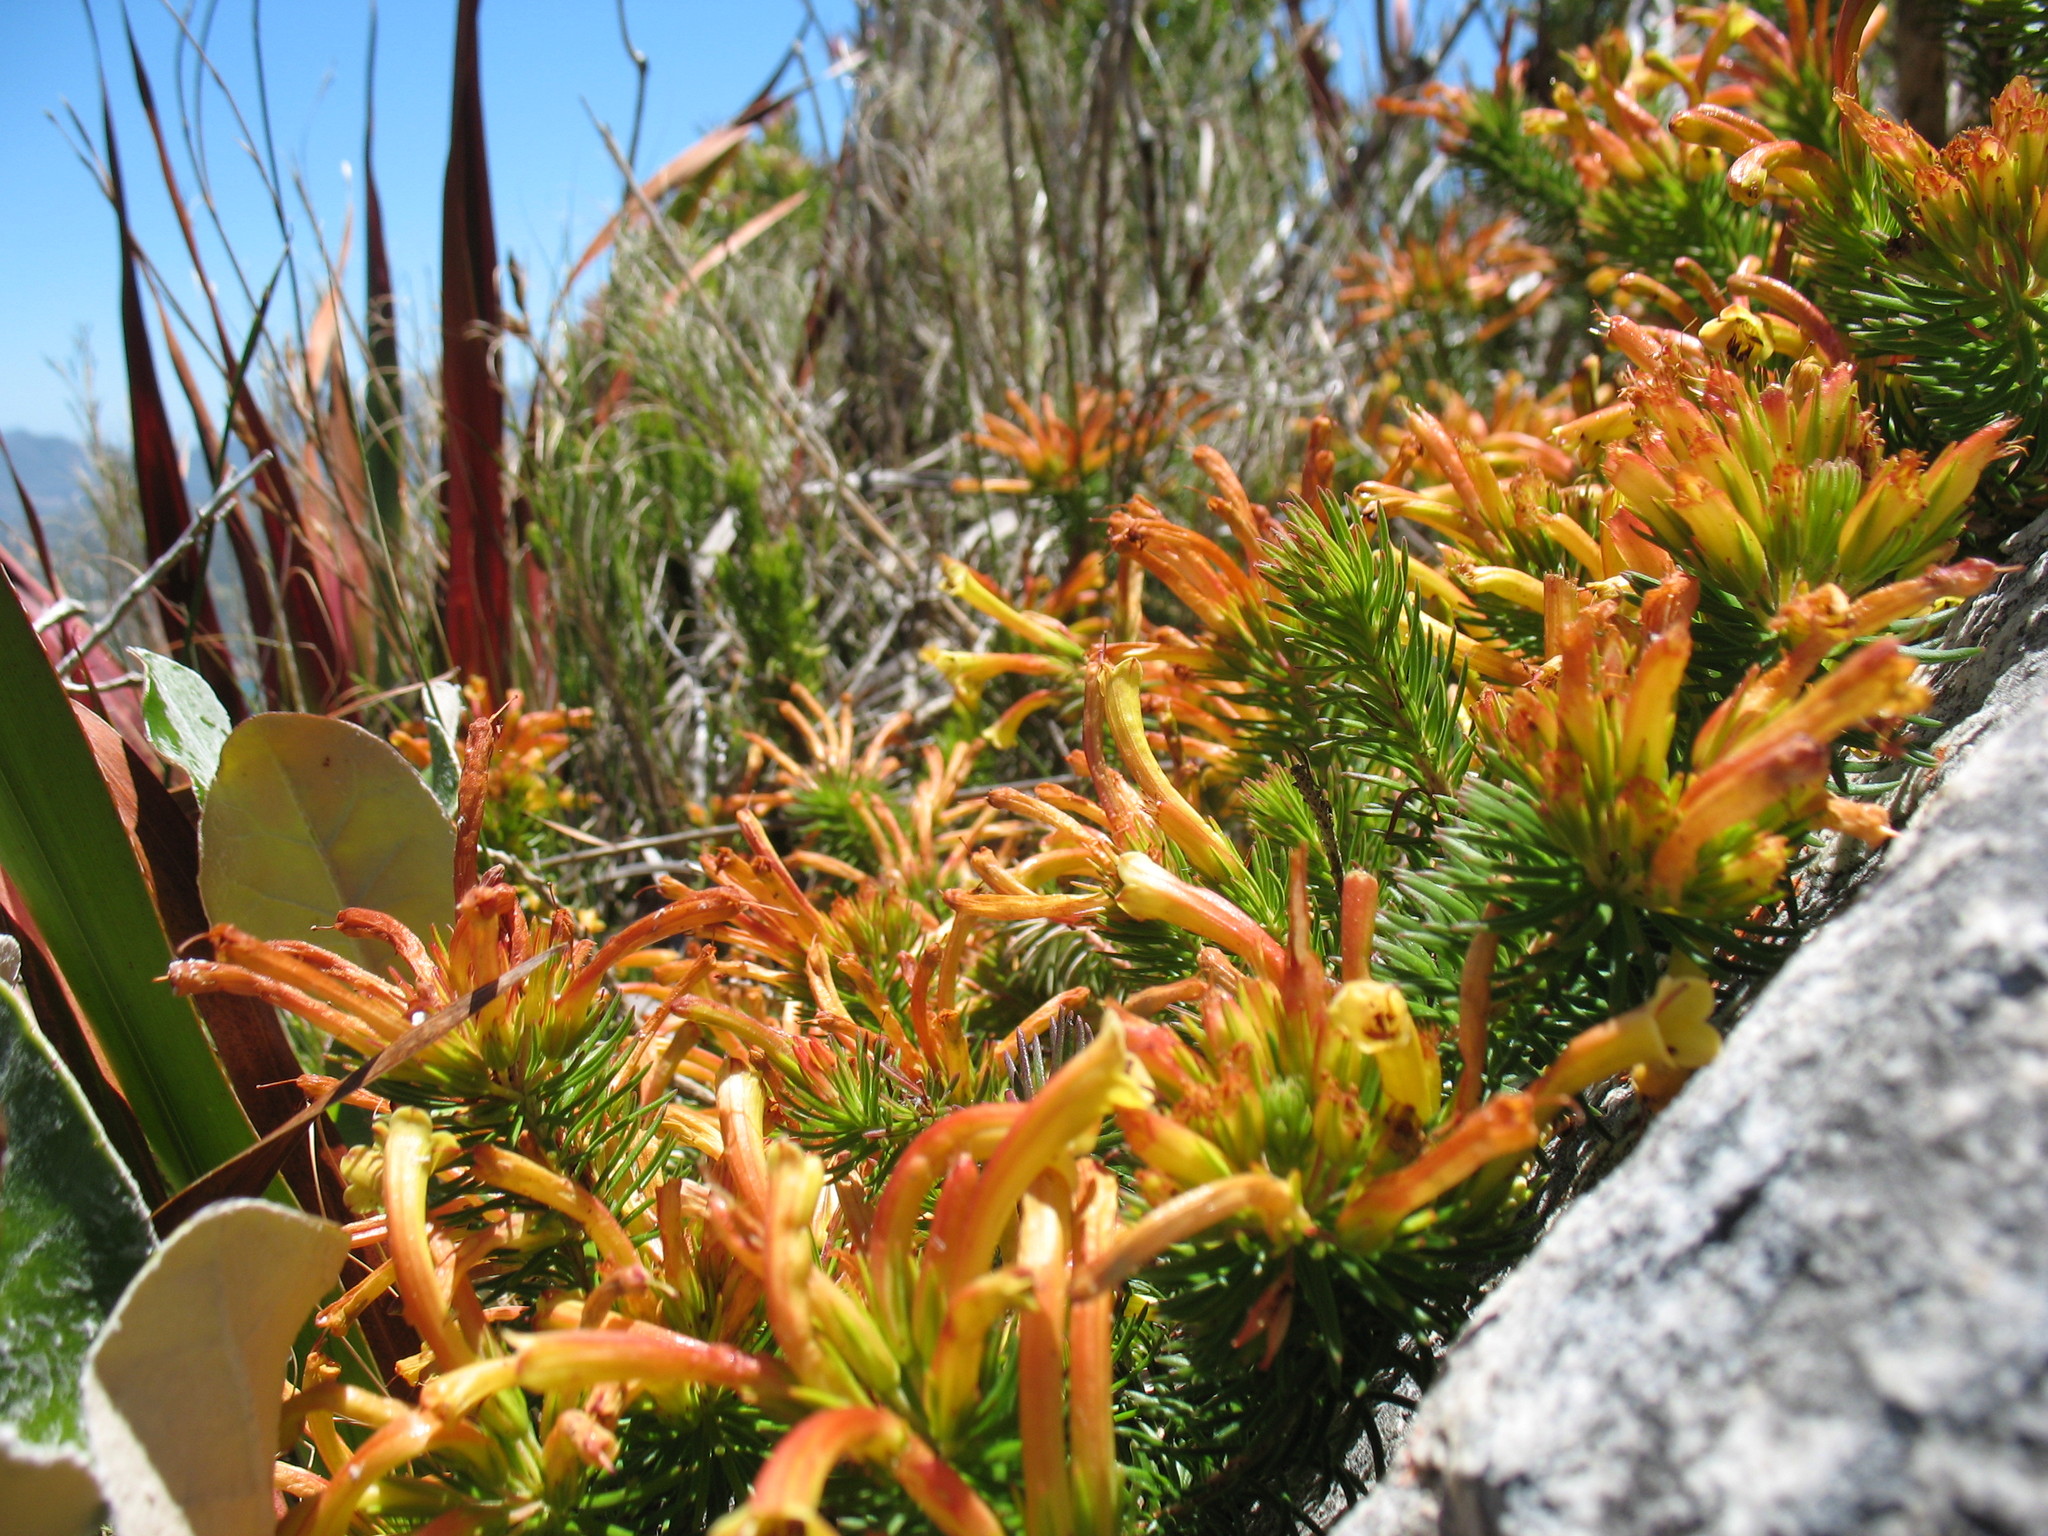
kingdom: Plantae
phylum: Tracheophyta
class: Magnoliopsida
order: Ericales
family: Ericaceae
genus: Erica
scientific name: Erica quadrisulcata
